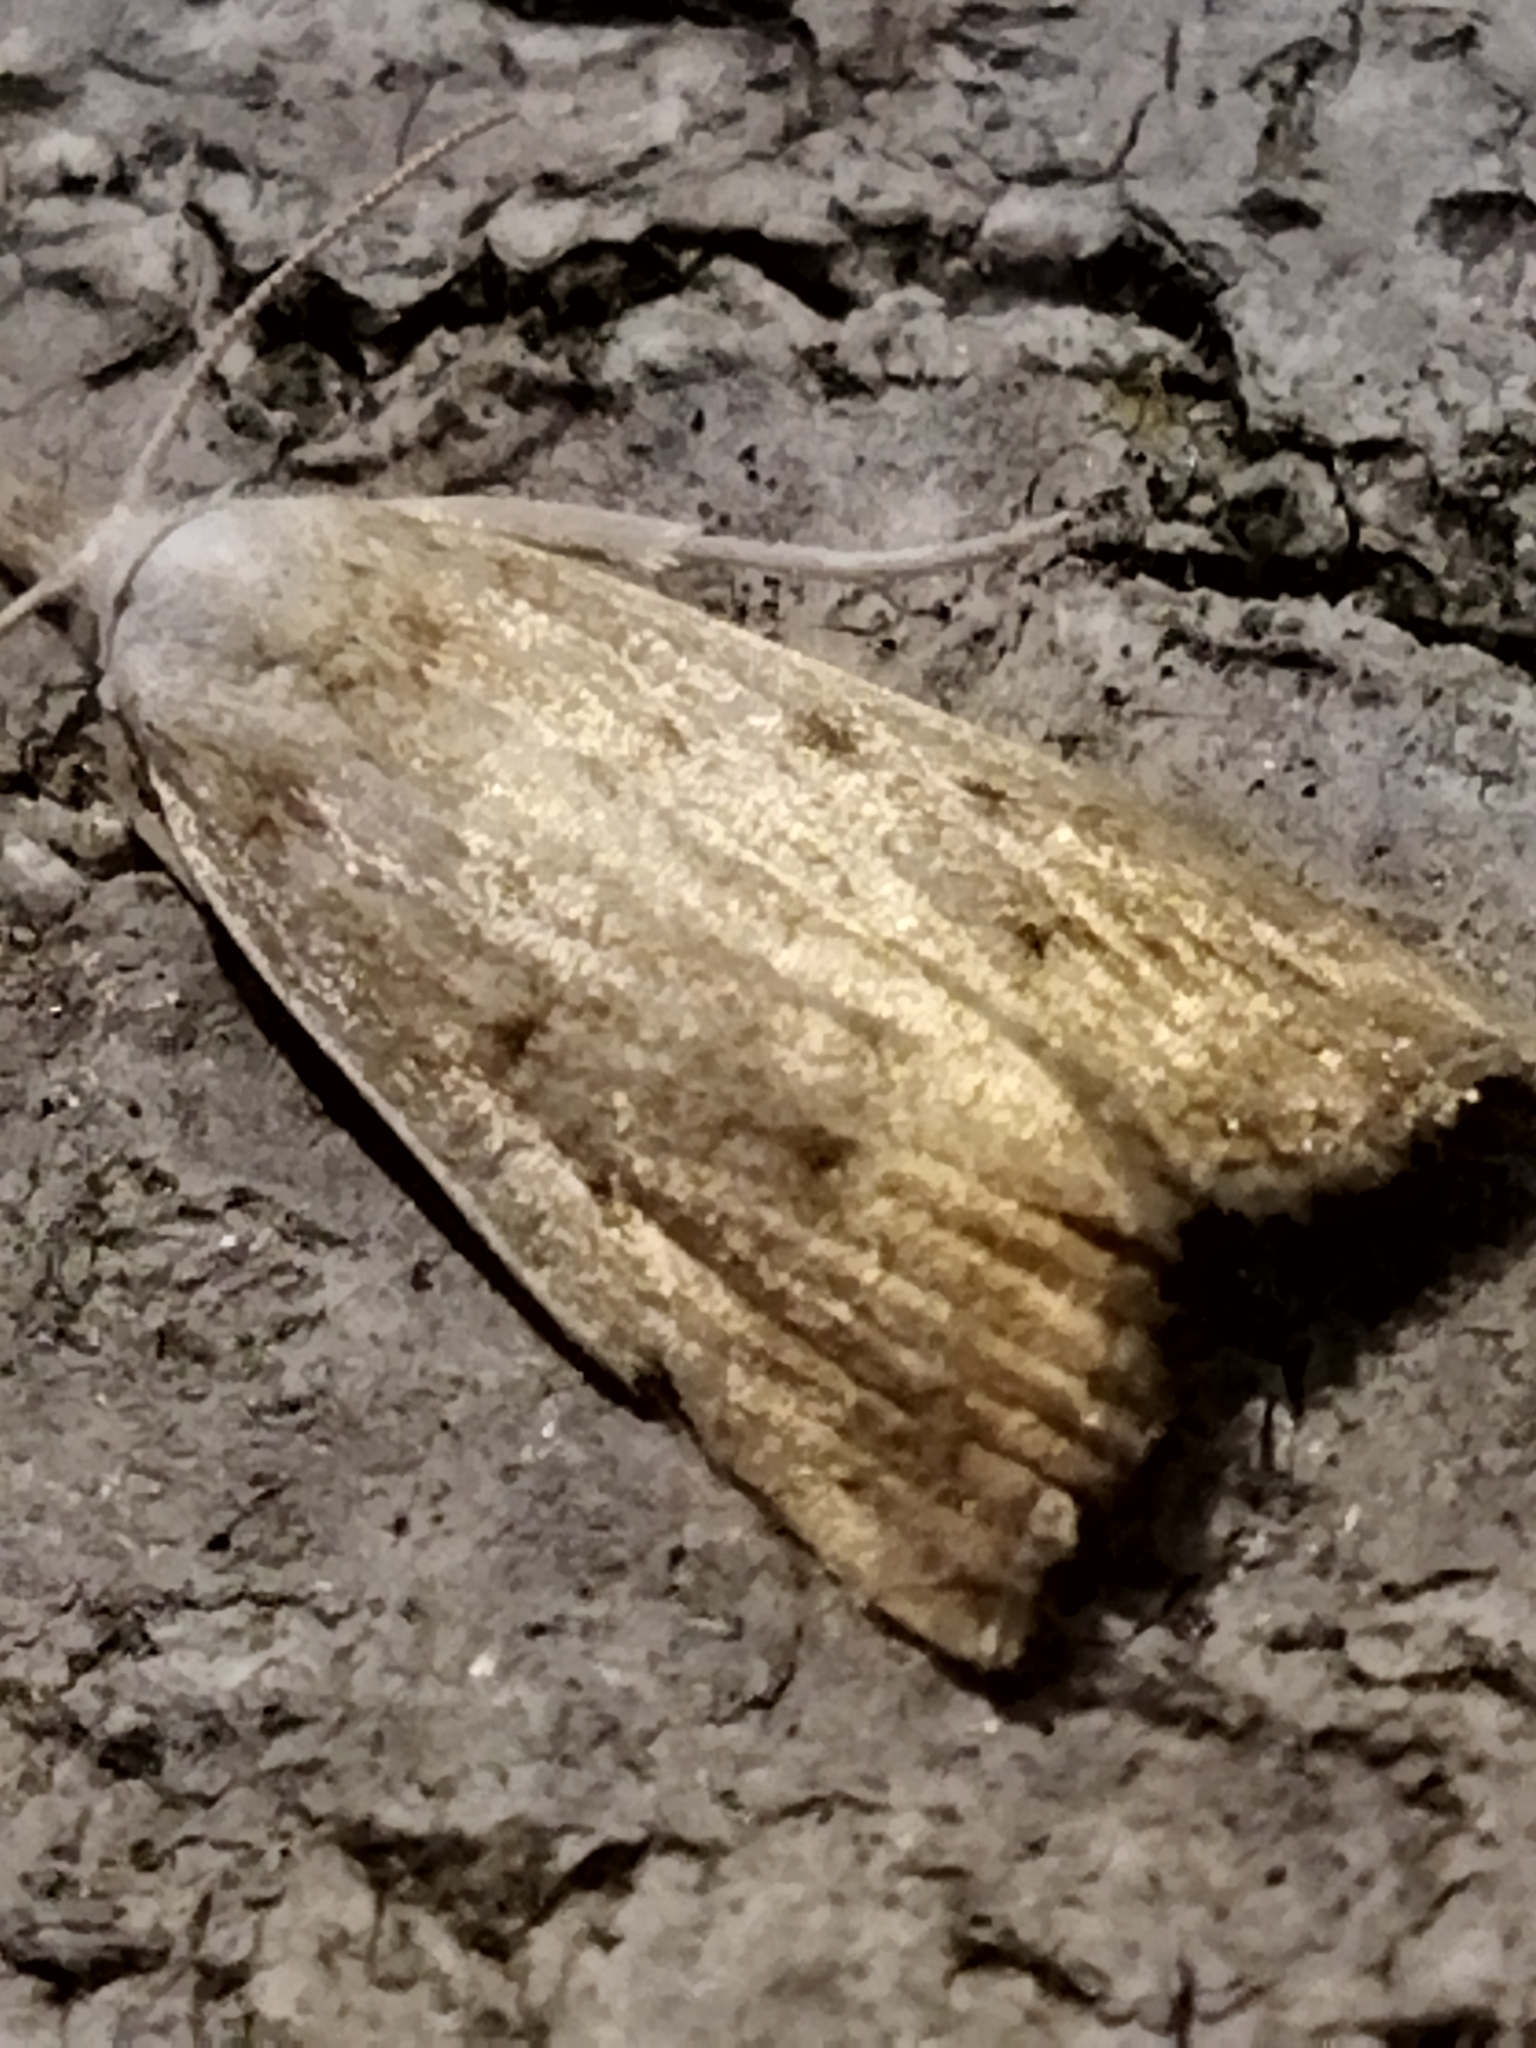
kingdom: Animalia
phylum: Arthropoda
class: Insecta
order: Lepidoptera
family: Crambidae
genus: Calamotropha
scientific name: Calamotropha paludella
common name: Bulrush veneer
